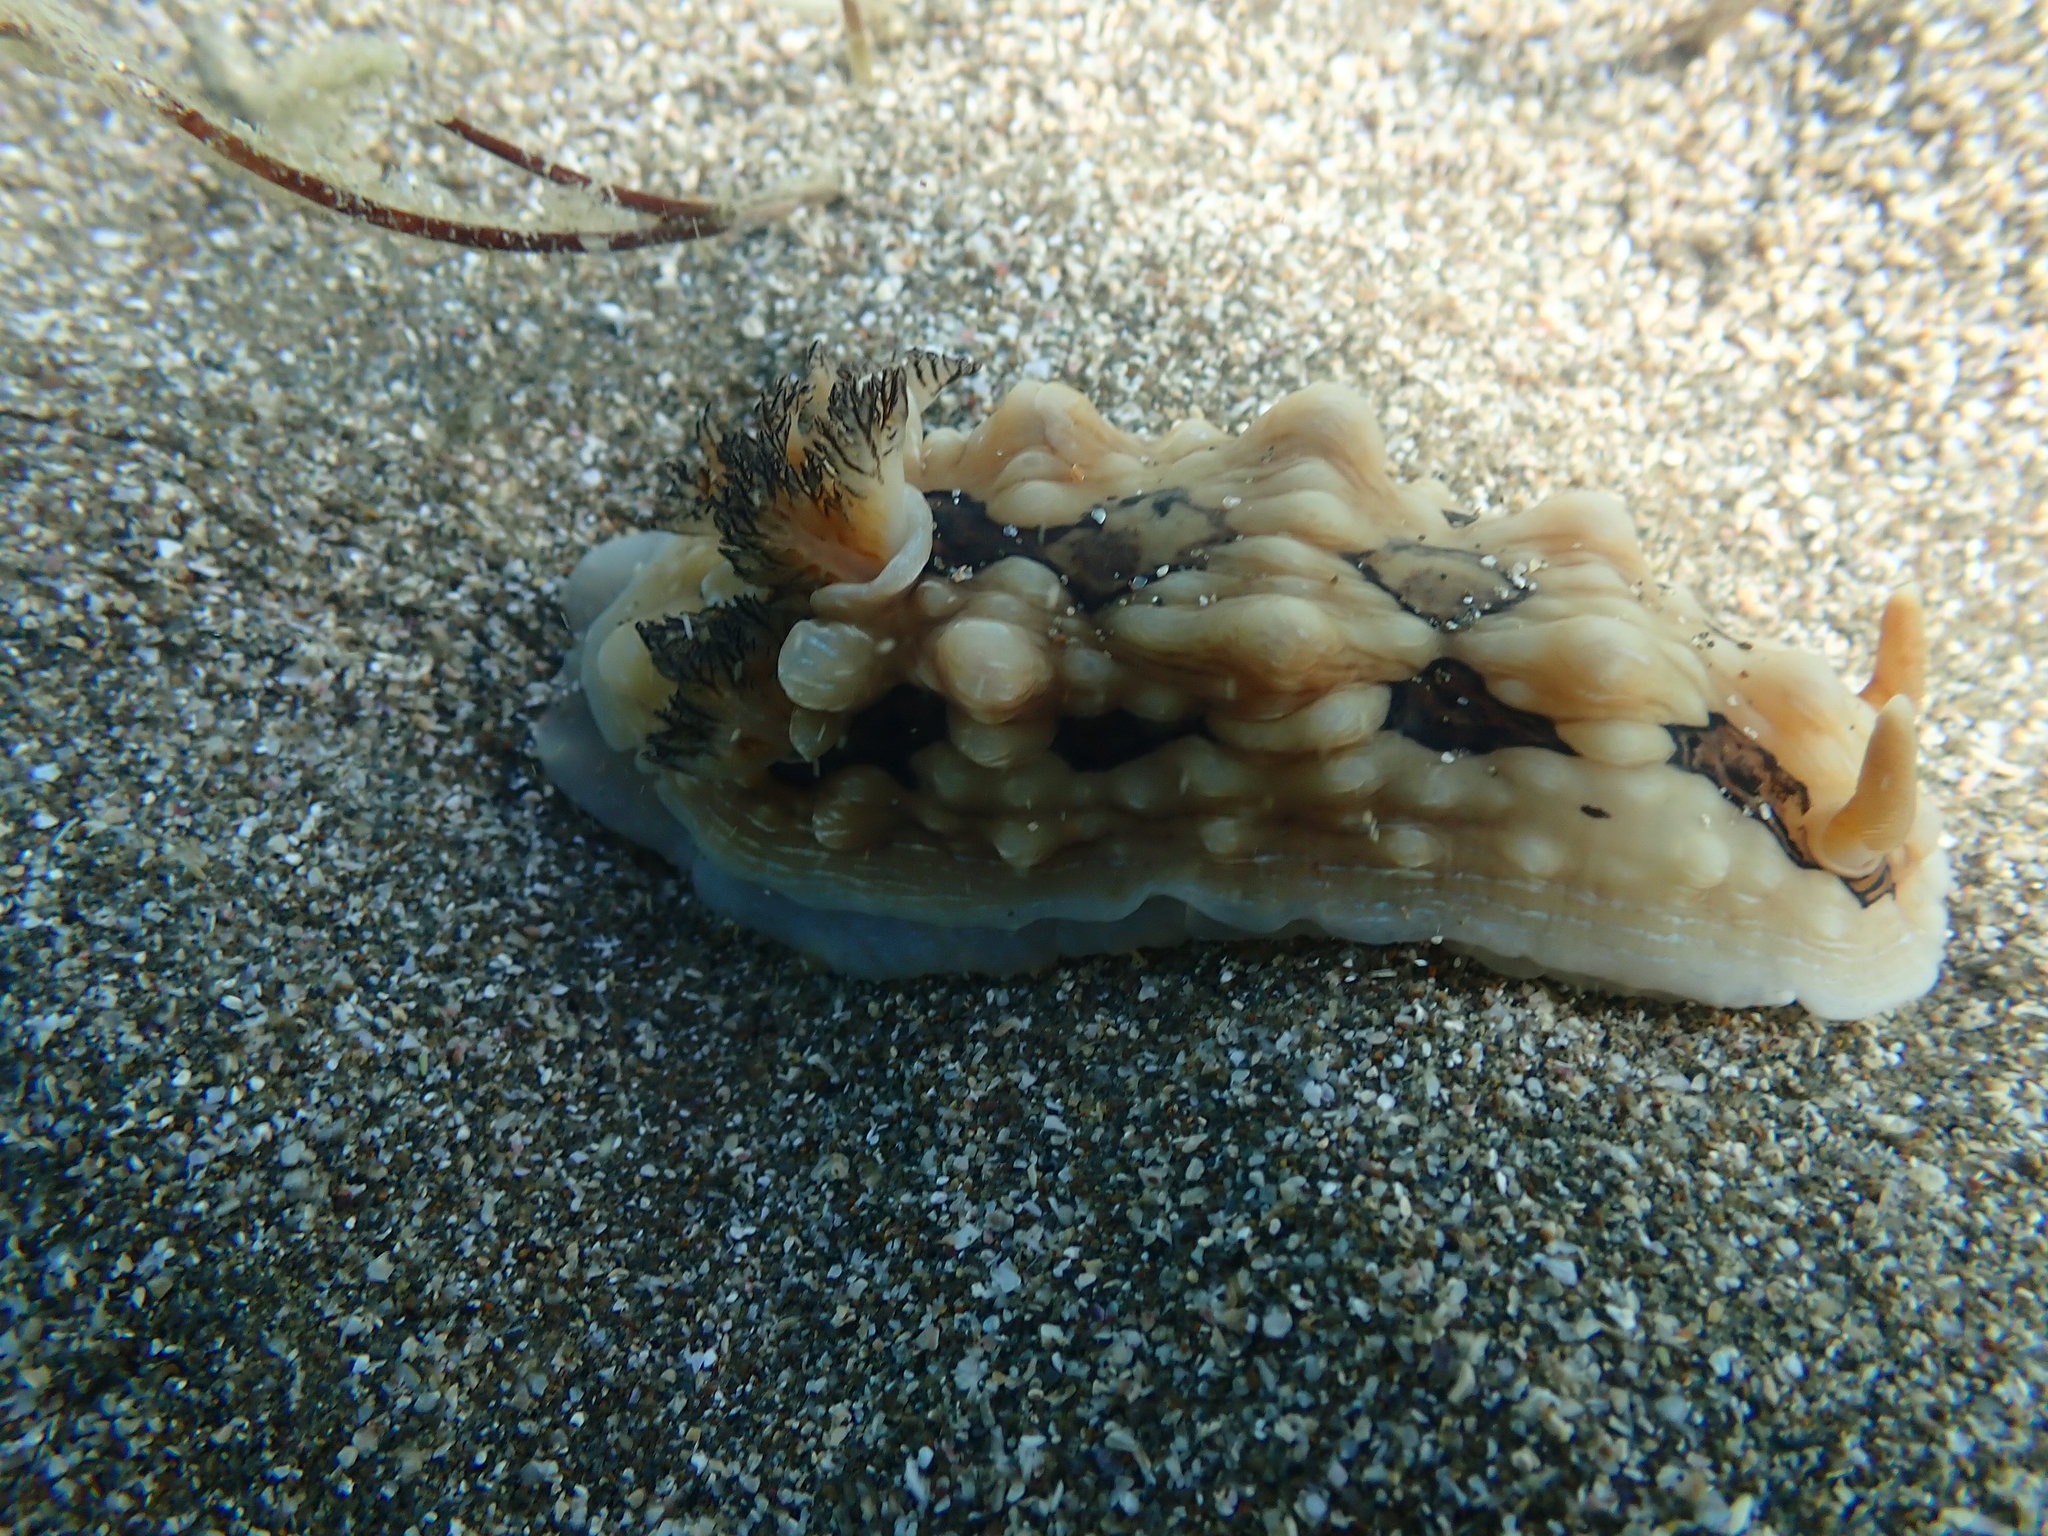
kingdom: Animalia
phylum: Mollusca
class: Gastropoda
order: Nudibranchia
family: Dendrodorididae
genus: Dendrodoris
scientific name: Dendrodoris krusensternii
